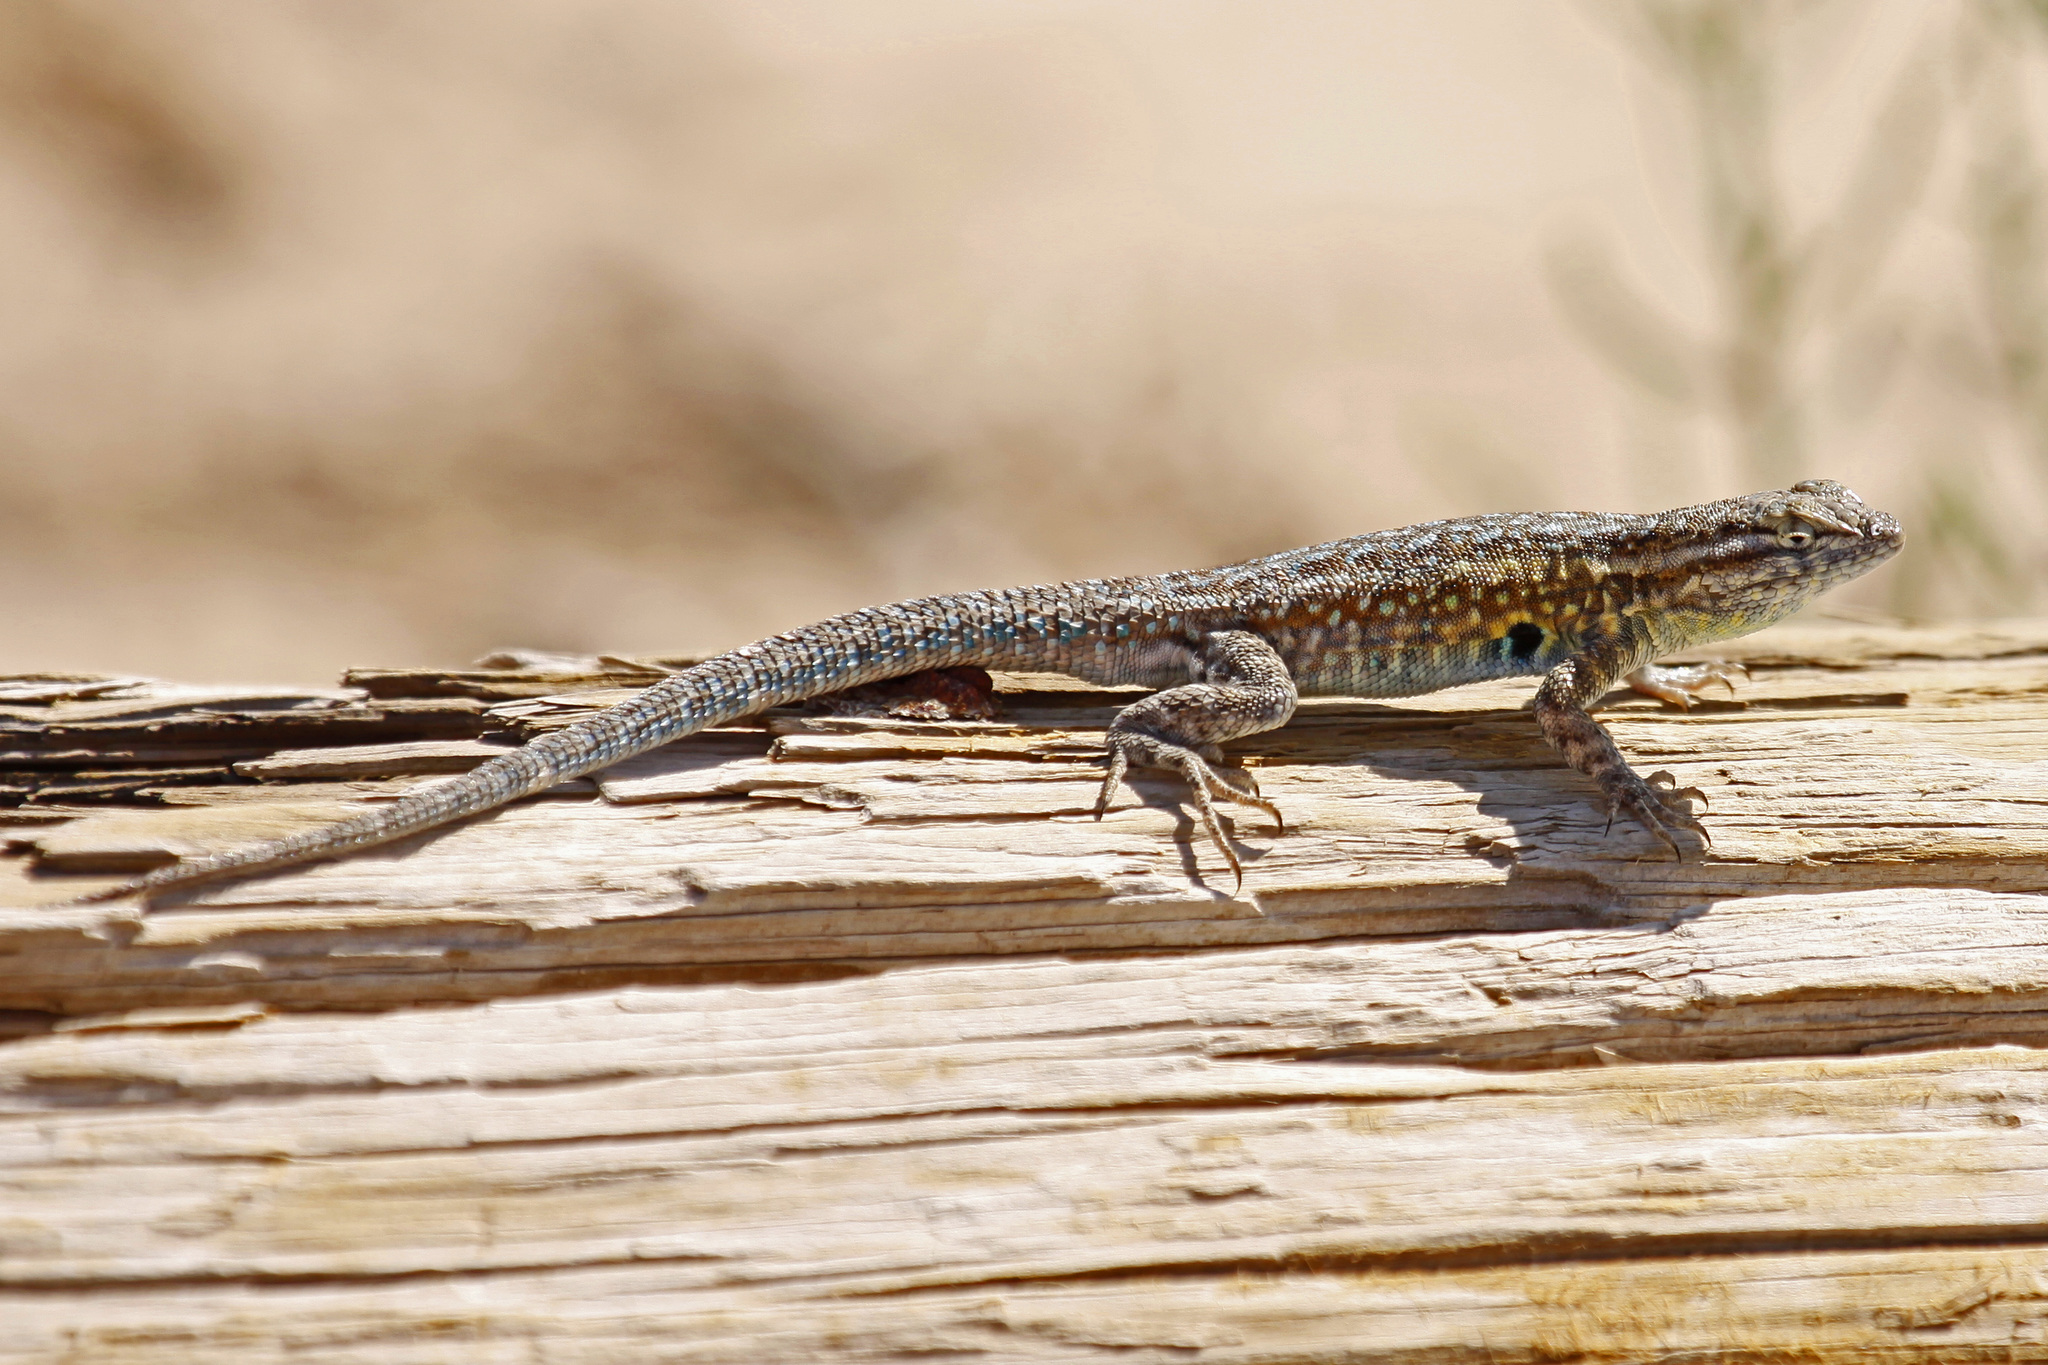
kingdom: Animalia
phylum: Chordata
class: Squamata
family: Phrynosomatidae
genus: Uta
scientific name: Uta stansburiana
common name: Side-blotched lizard
